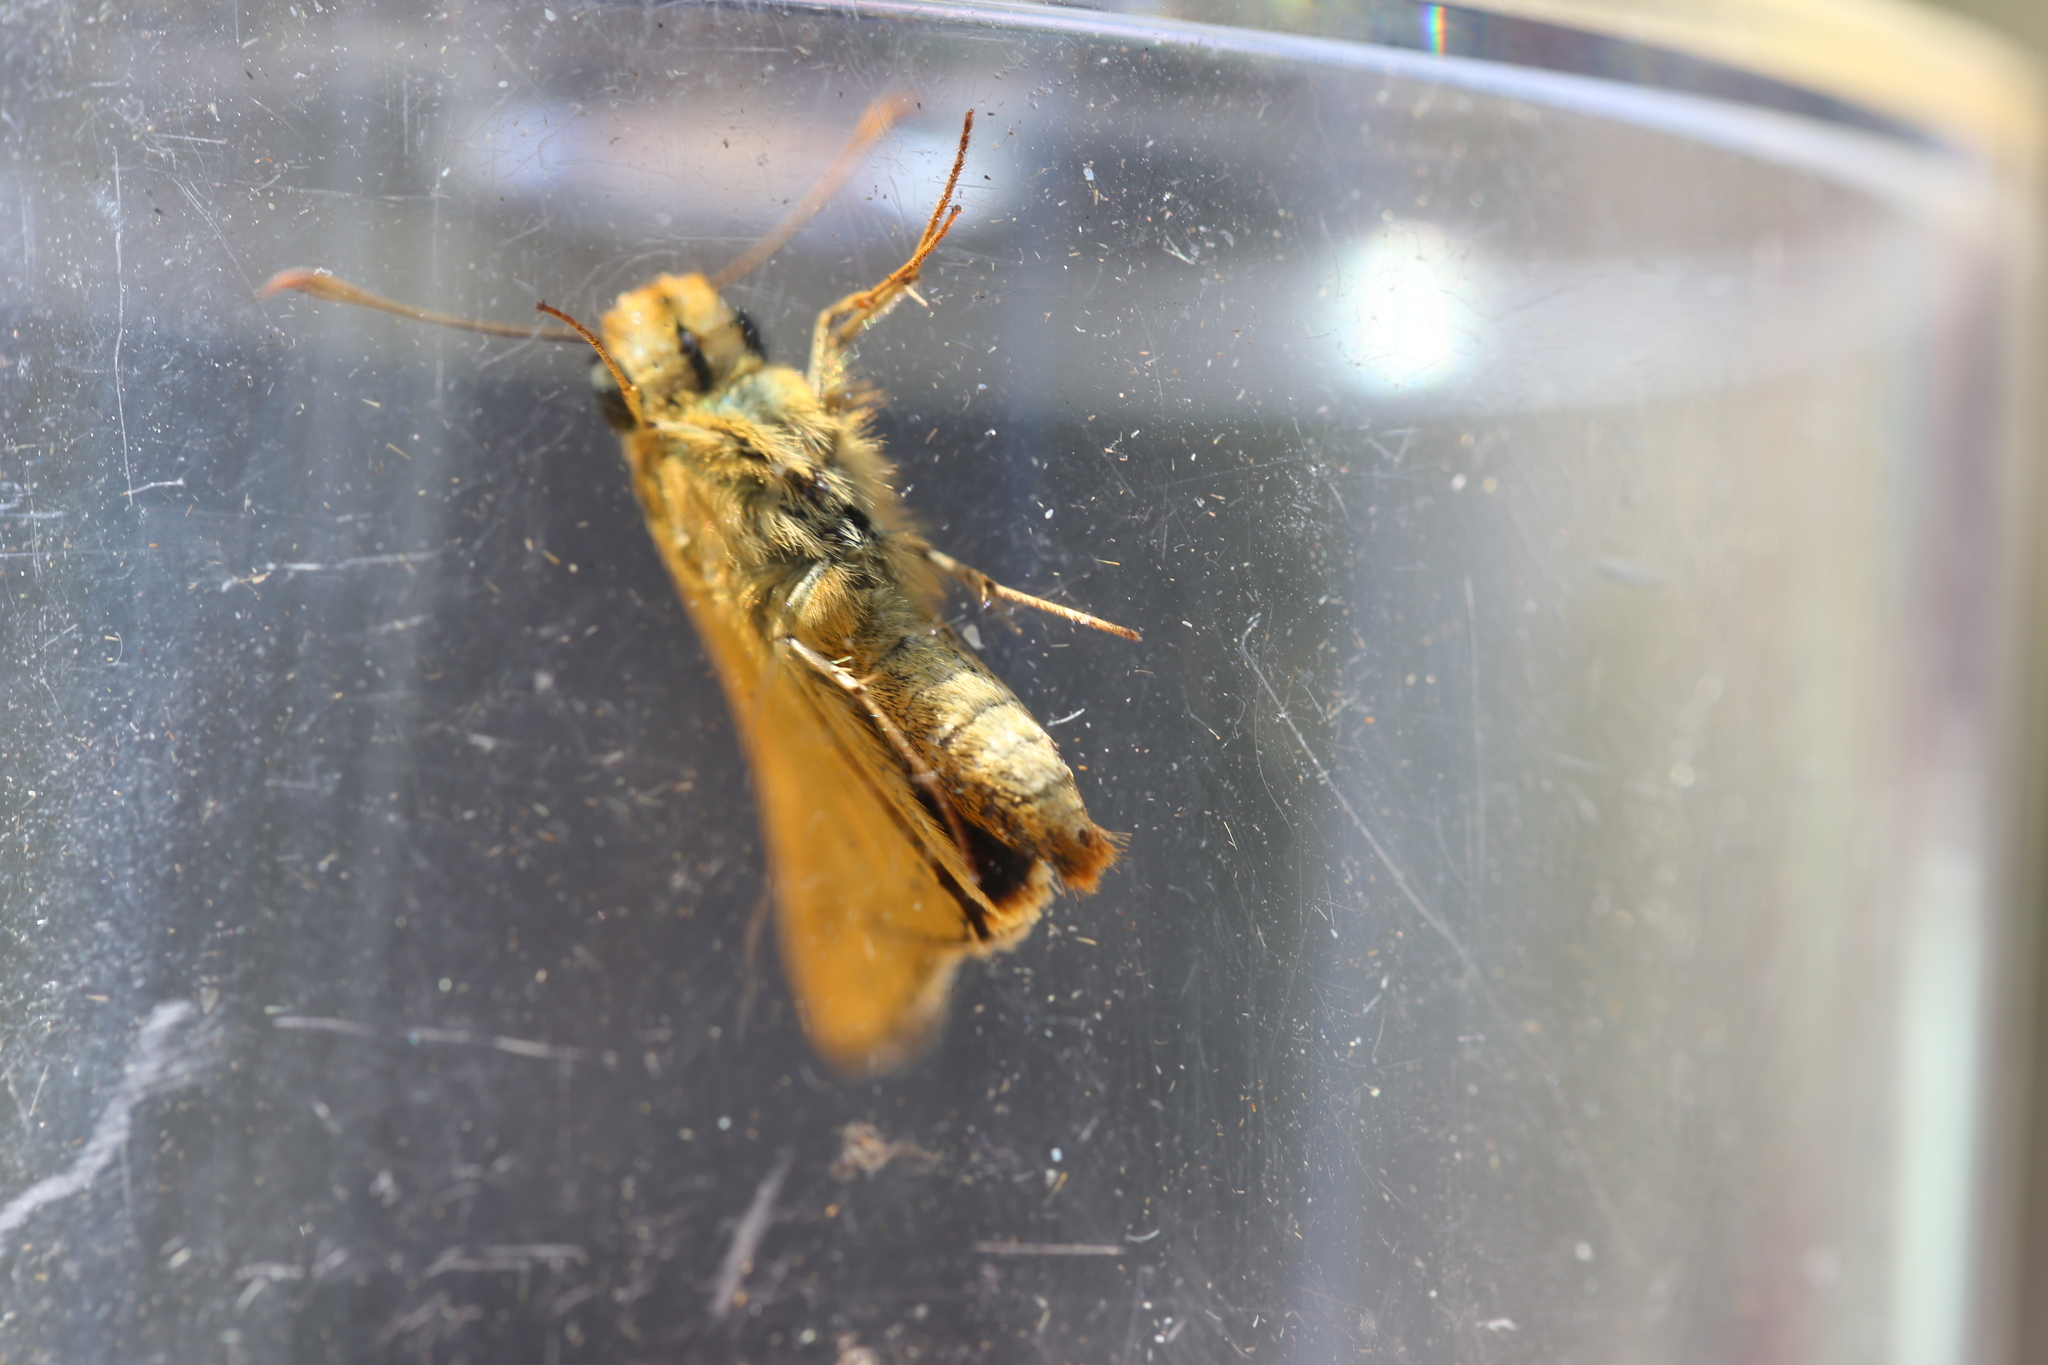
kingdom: Animalia
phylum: Arthropoda
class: Insecta
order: Lepidoptera
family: Hesperiidae
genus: Telicota
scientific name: Telicota colon
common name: Pale palm dart
